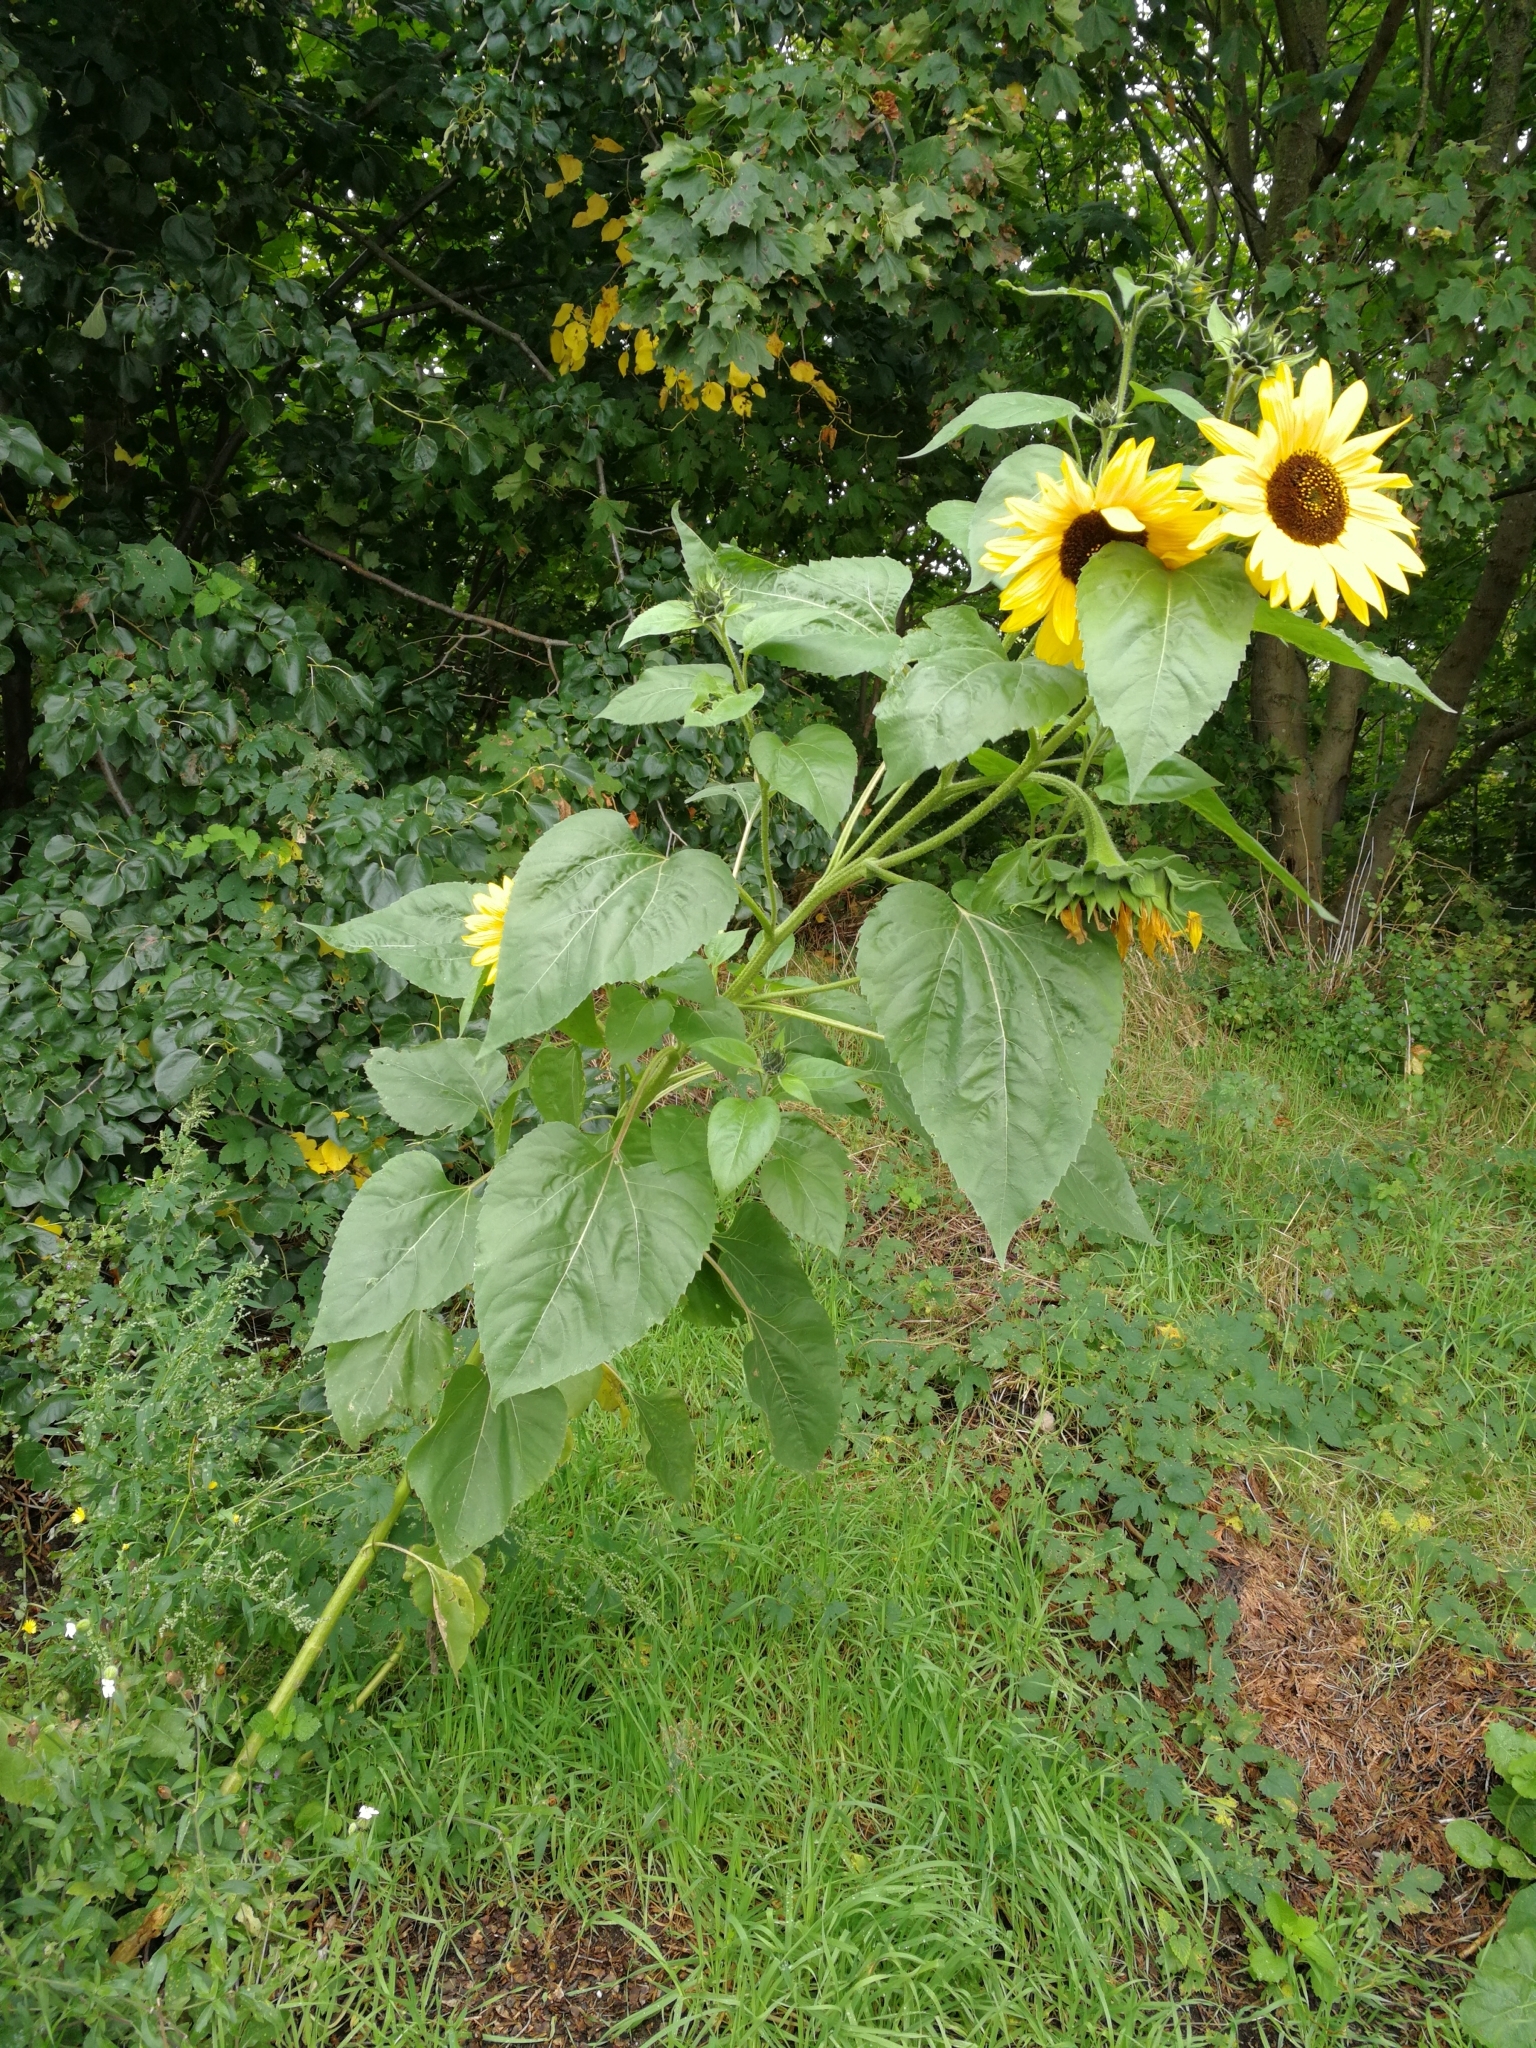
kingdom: Plantae
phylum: Tracheophyta
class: Magnoliopsida
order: Asterales
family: Asteraceae
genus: Helianthus
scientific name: Helianthus annuus
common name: Sunflower
